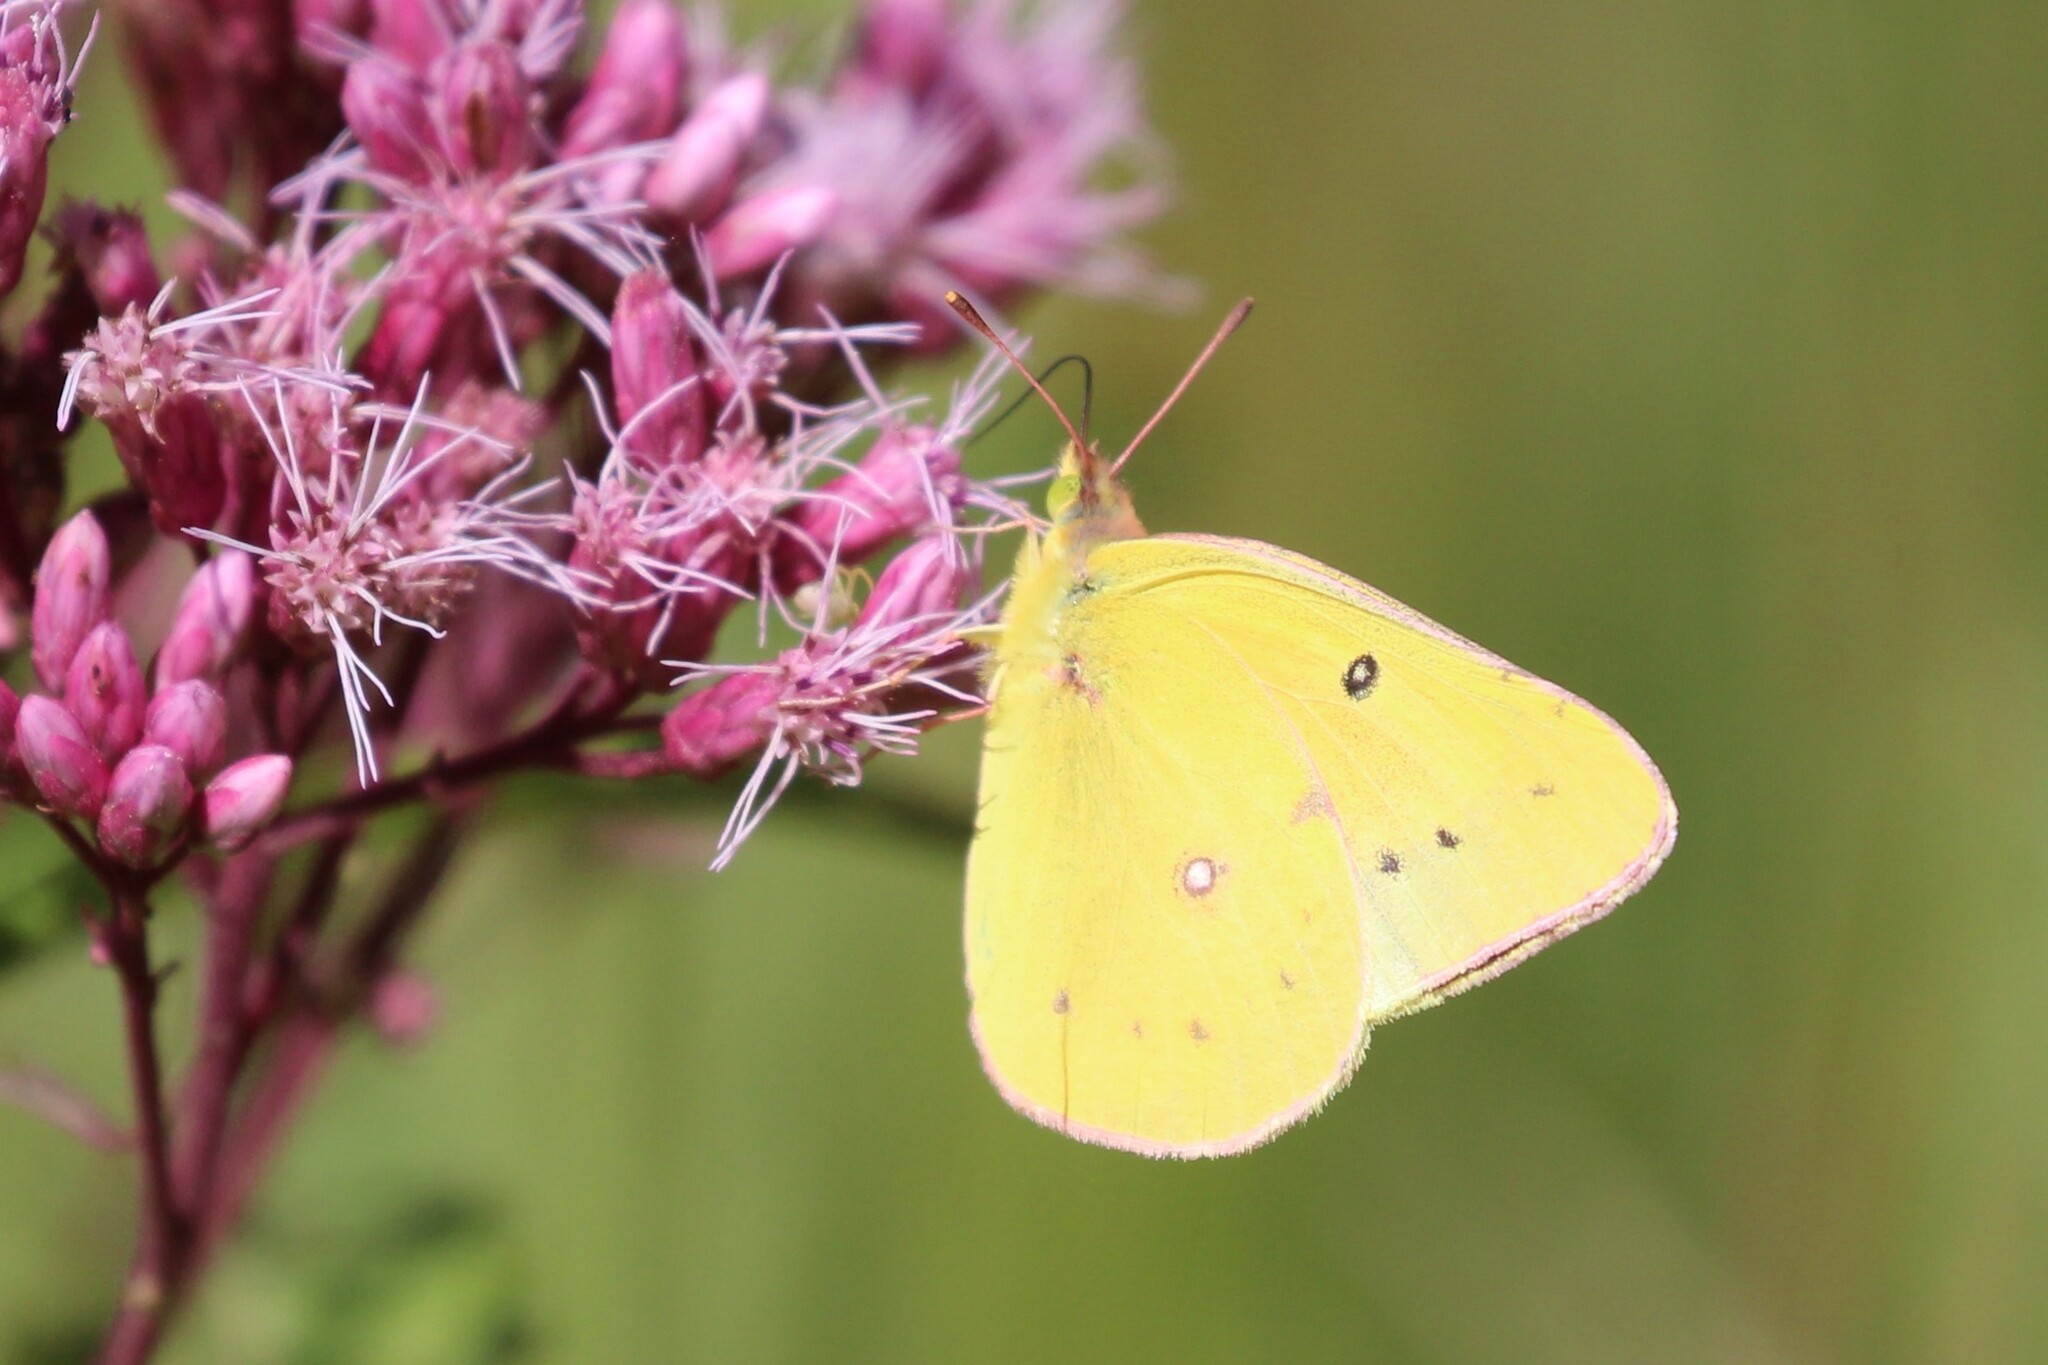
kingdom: Animalia
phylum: Arthropoda
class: Insecta
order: Lepidoptera
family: Pieridae
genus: Colias
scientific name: Colias philodice
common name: Clouded sulphur
